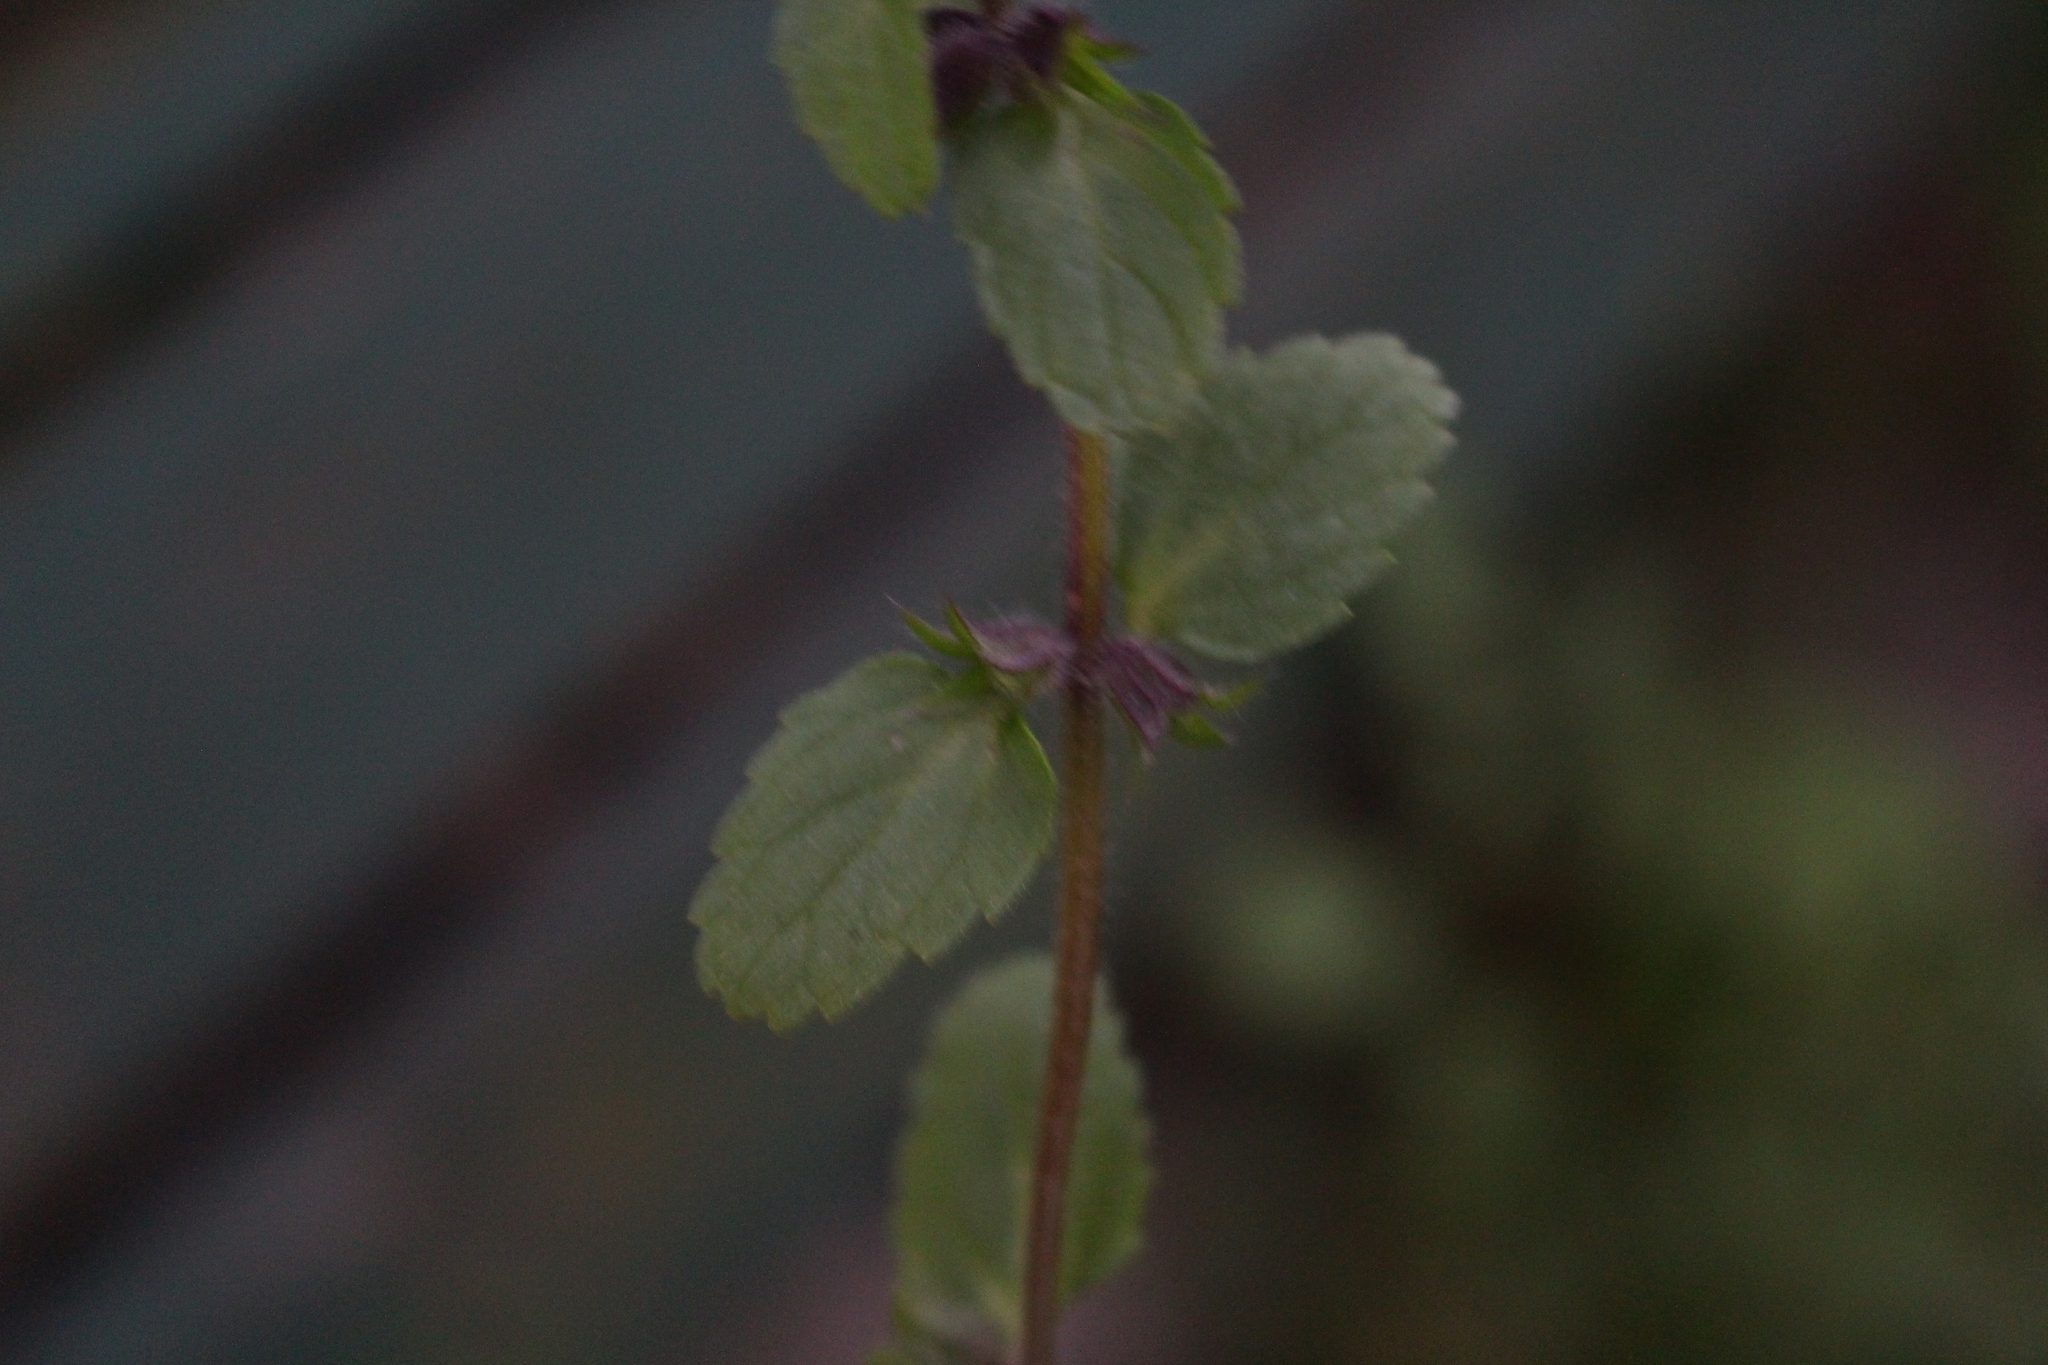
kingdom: Plantae
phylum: Tracheophyta
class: Magnoliopsida
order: Lamiales
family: Lamiaceae
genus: Stachys
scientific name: Stachys arvensis
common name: Field woundwort
